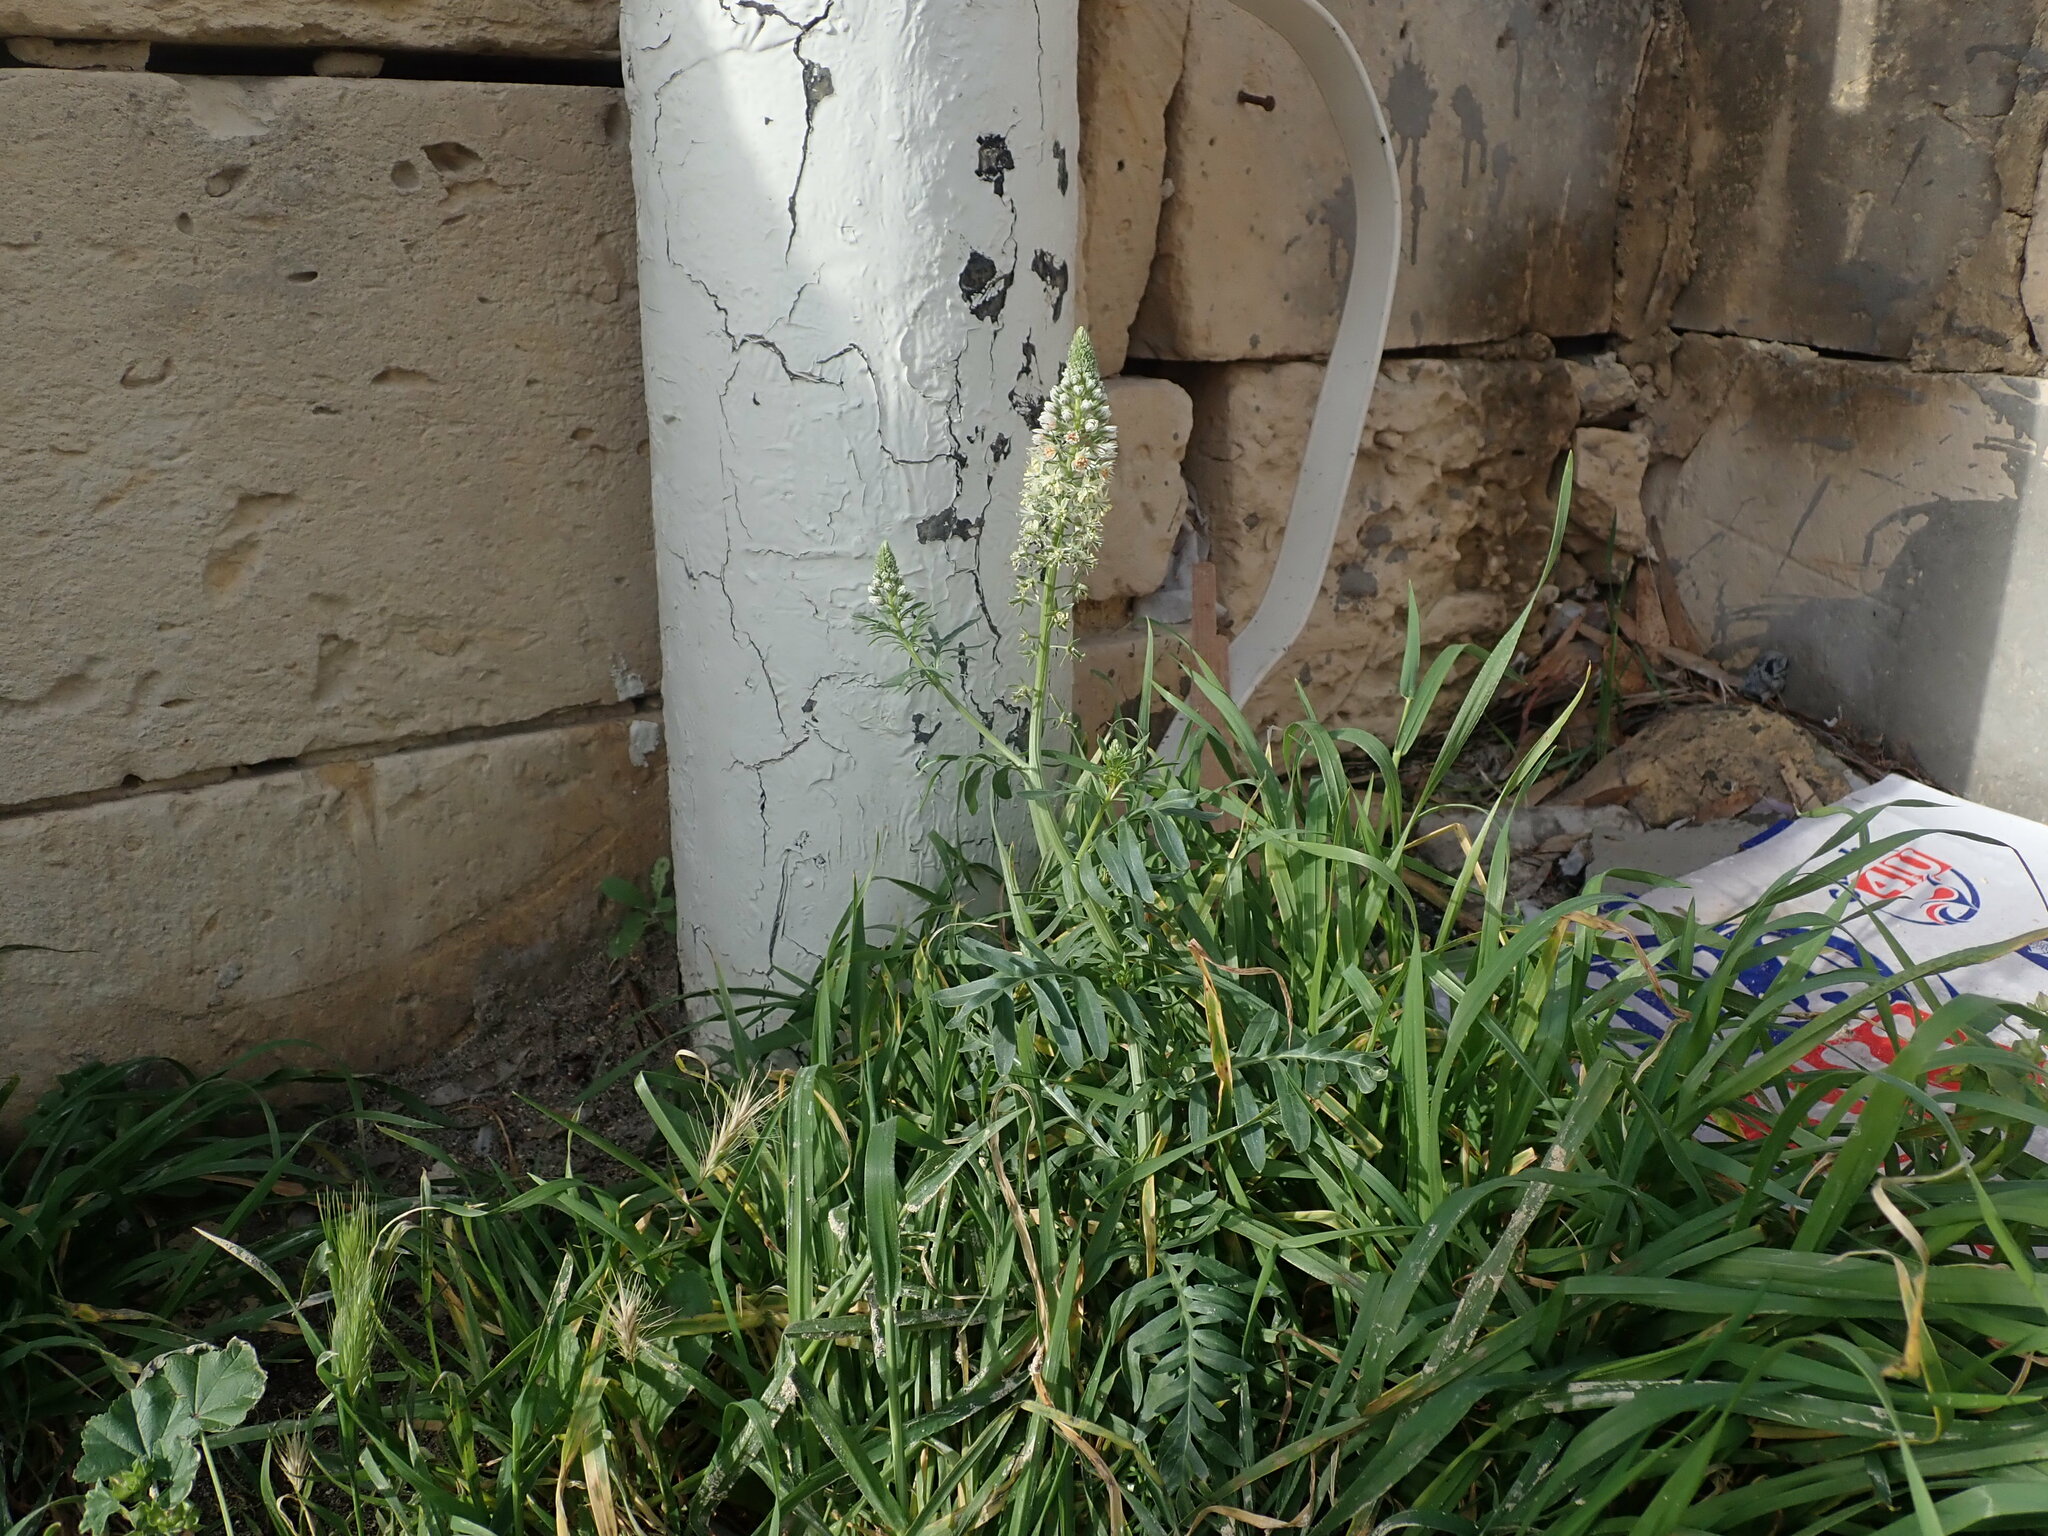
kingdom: Plantae
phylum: Tracheophyta
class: Magnoliopsida
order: Brassicales
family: Resedaceae
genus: Reseda
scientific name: Reseda alba
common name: White mignonette
